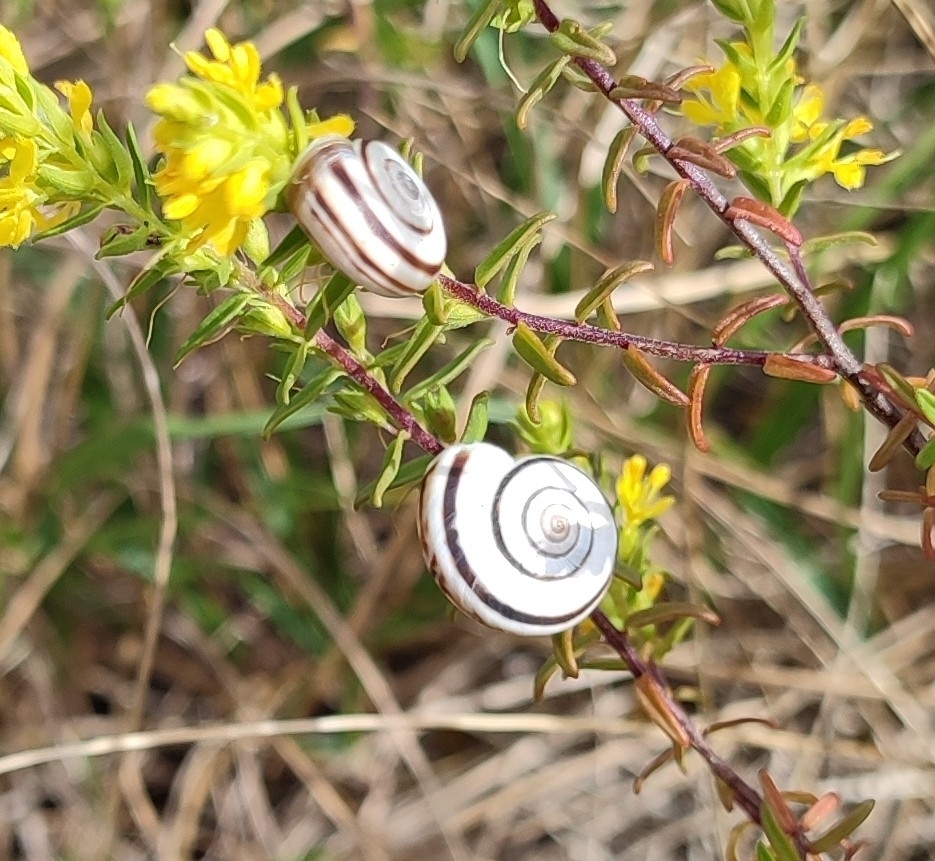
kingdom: Animalia
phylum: Mollusca
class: Gastropoda
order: Stylommatophora
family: Geomitridae
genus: Xerolenta
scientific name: Xerolenta obvia
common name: White heath snail
